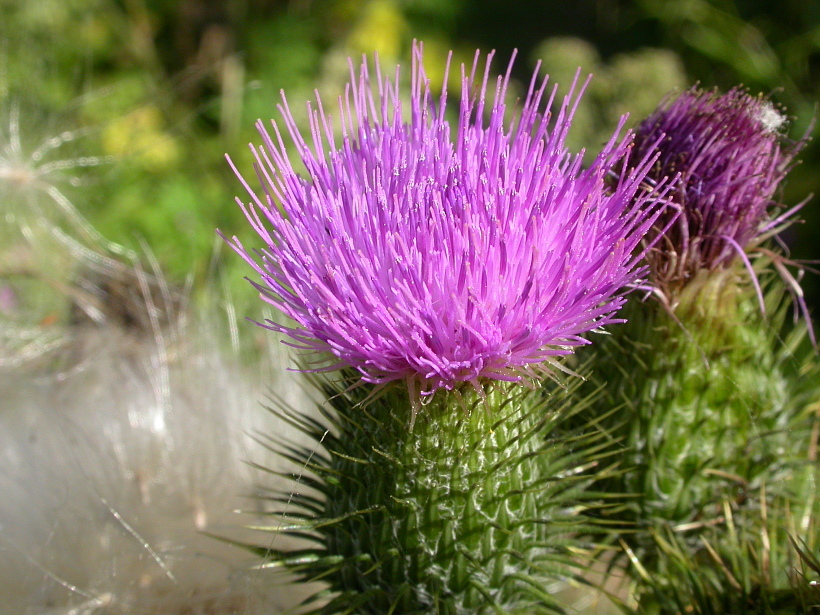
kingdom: Plantae
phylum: Tracheophyta
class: Magnoliopsida
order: Asterales
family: Asteraceae
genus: Cirsium
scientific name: Cirsium vulgare
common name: Bull thistle
